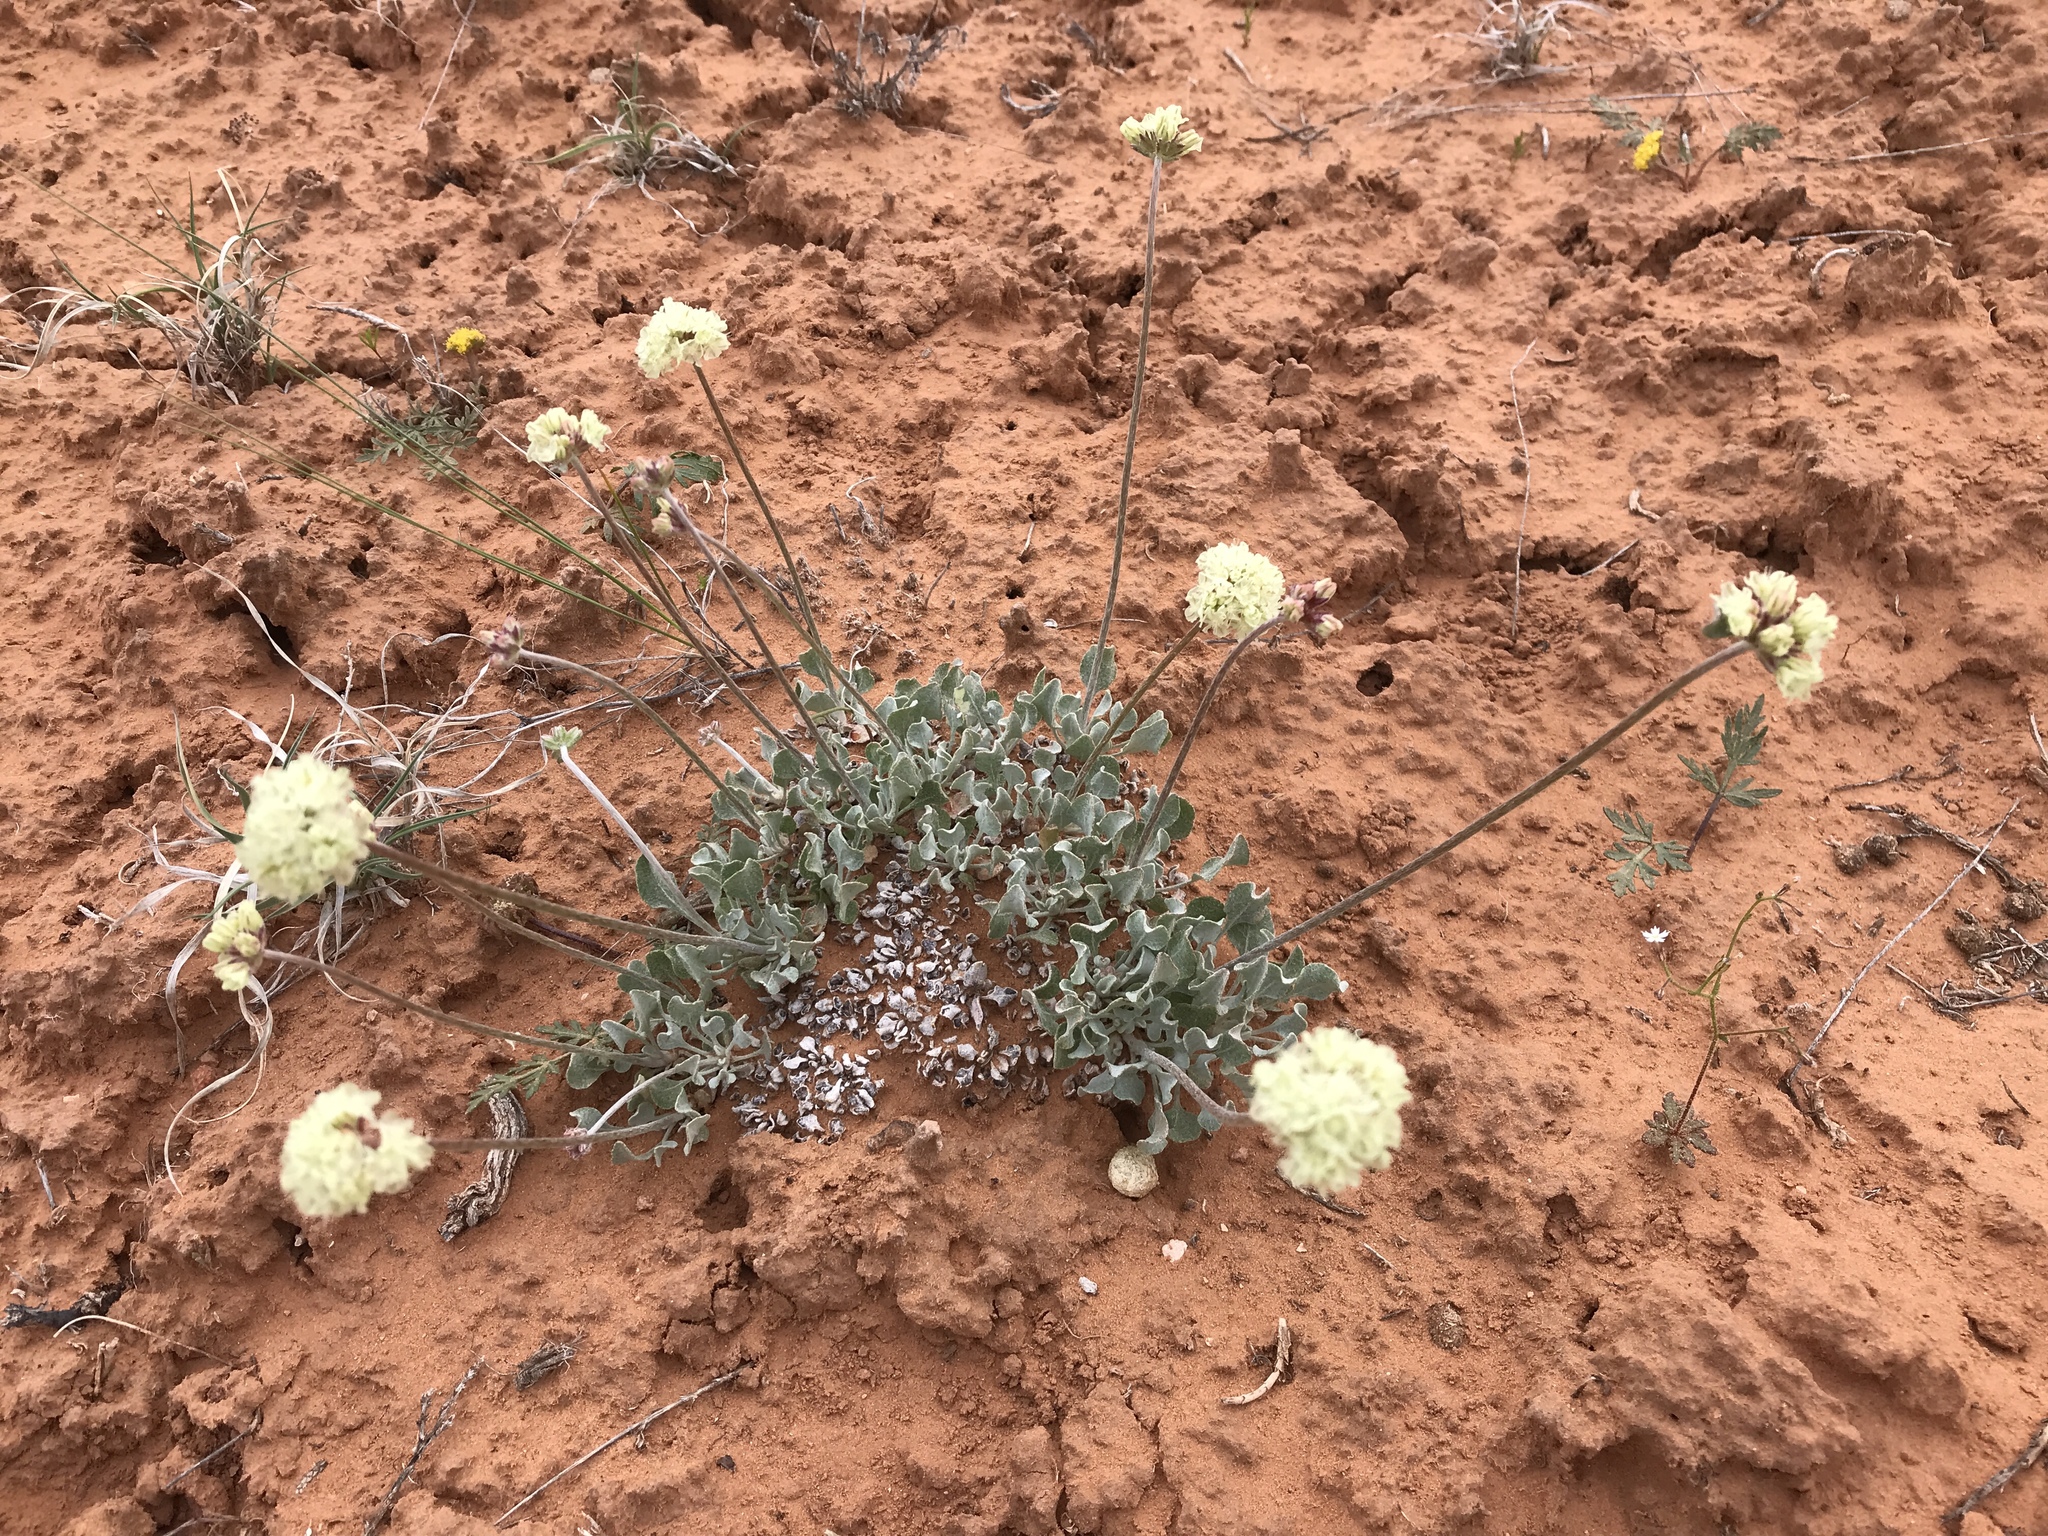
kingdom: Plantae
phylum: Tracheophyta
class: Magnoliopsida
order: Caryophyllales
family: Polygonaceae
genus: Eriogonum
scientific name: Eriogonum ovalifolium
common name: Cushion buckwheat
